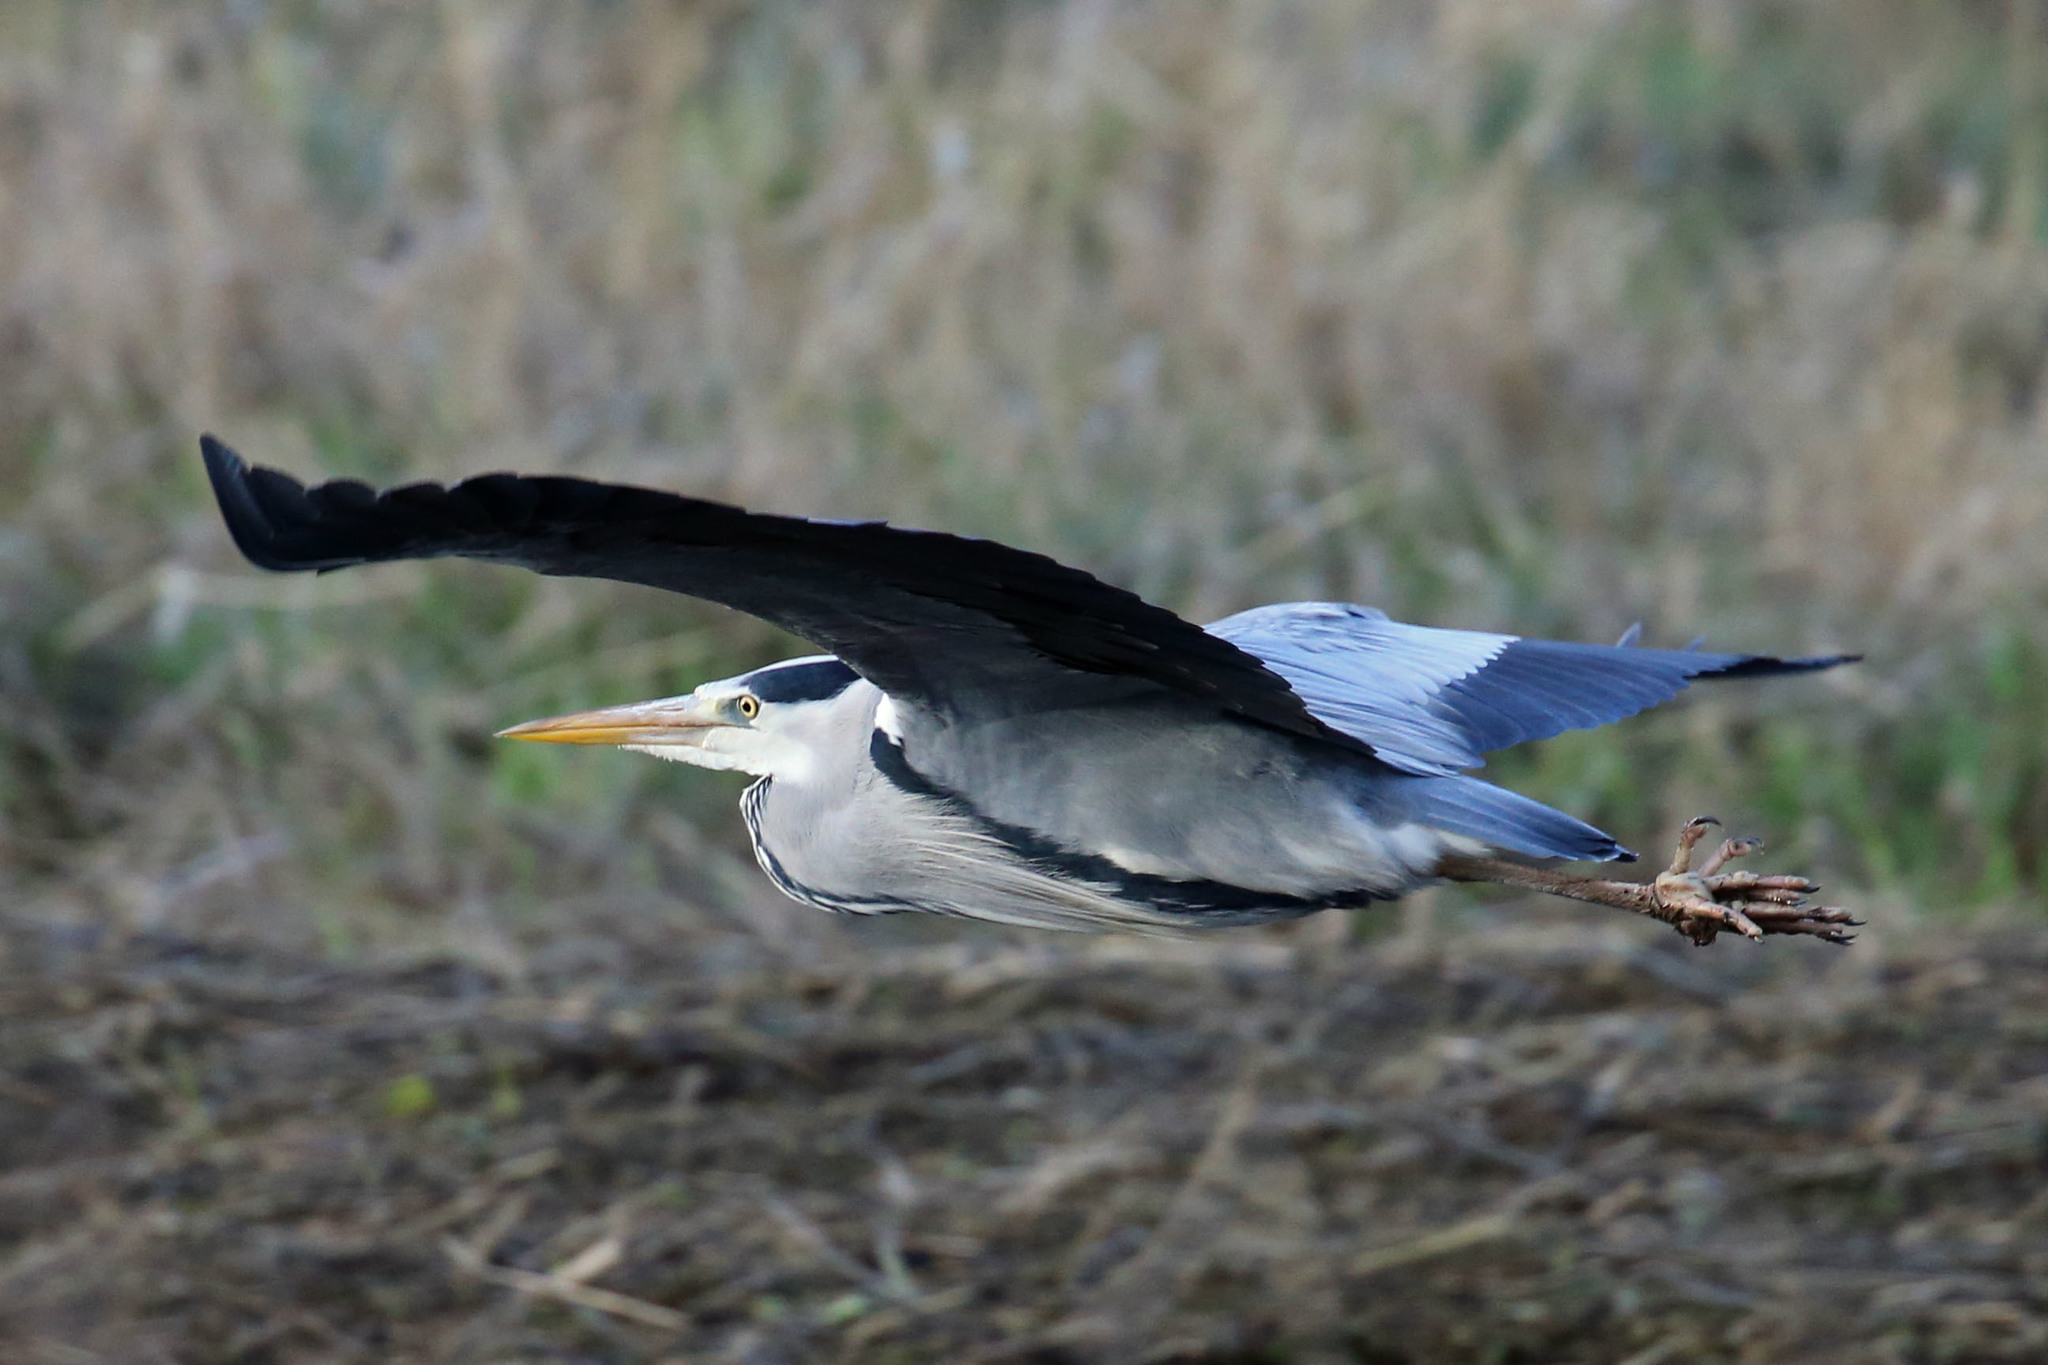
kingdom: Animalia
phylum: Chordata
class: Aves
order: Pelecaniformes
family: Ardeidae
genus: Ardea
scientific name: Ardea cinerea
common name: Grey heron
